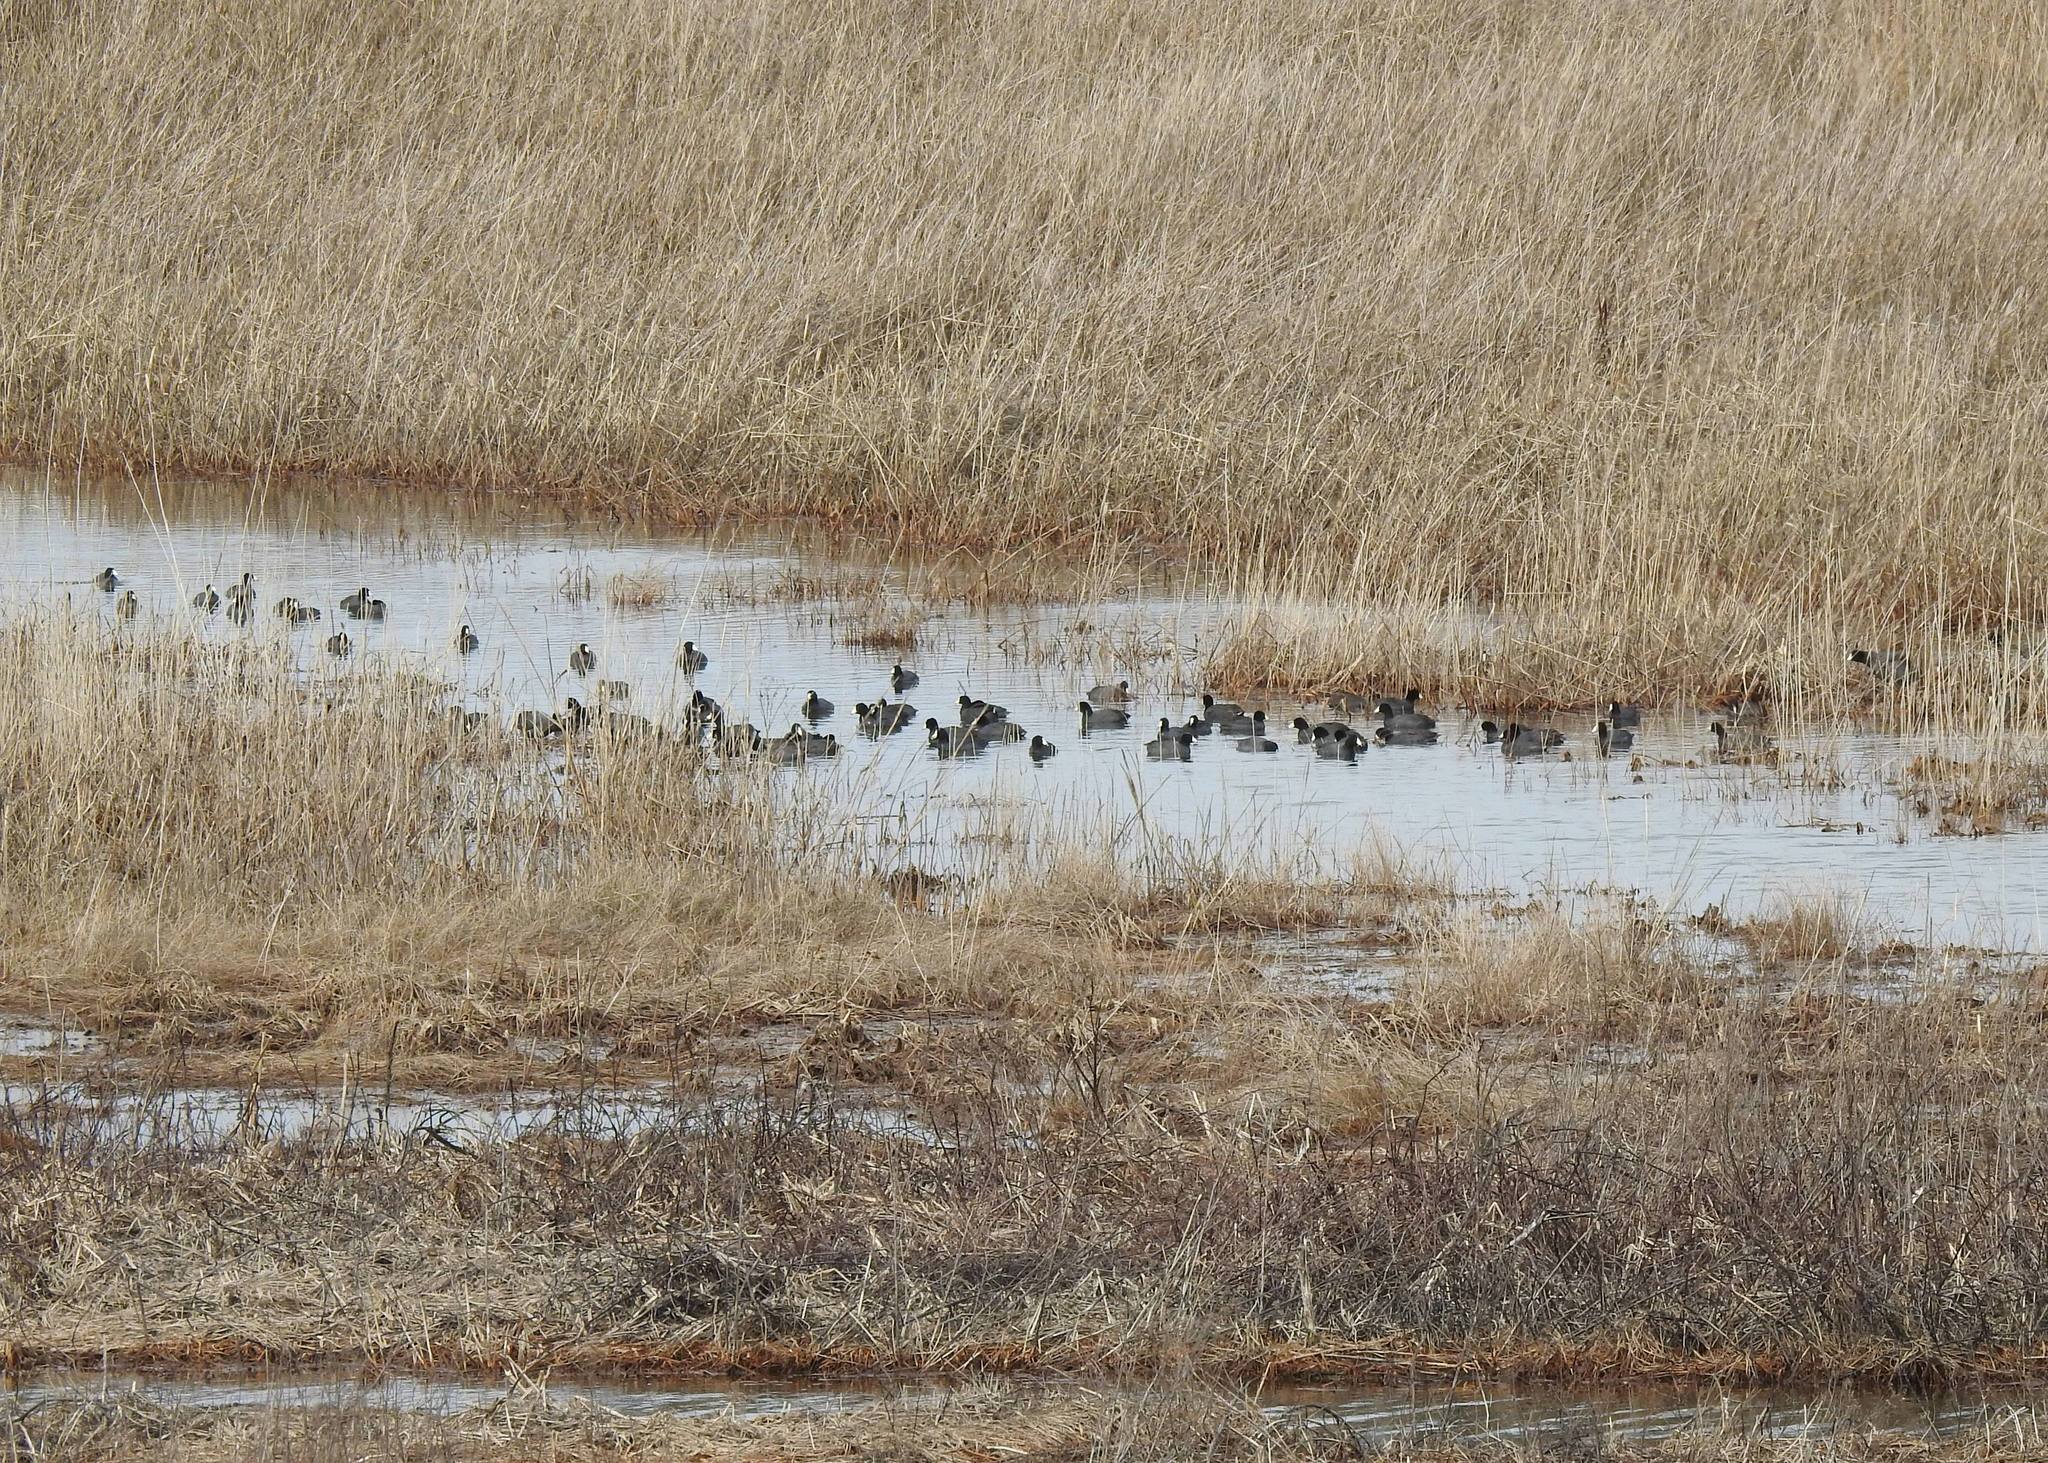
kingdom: Animalia
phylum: Chordata
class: Aves
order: Gruiformes
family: Rallidae
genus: Fulica
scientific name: Fulica americana
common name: American coot
